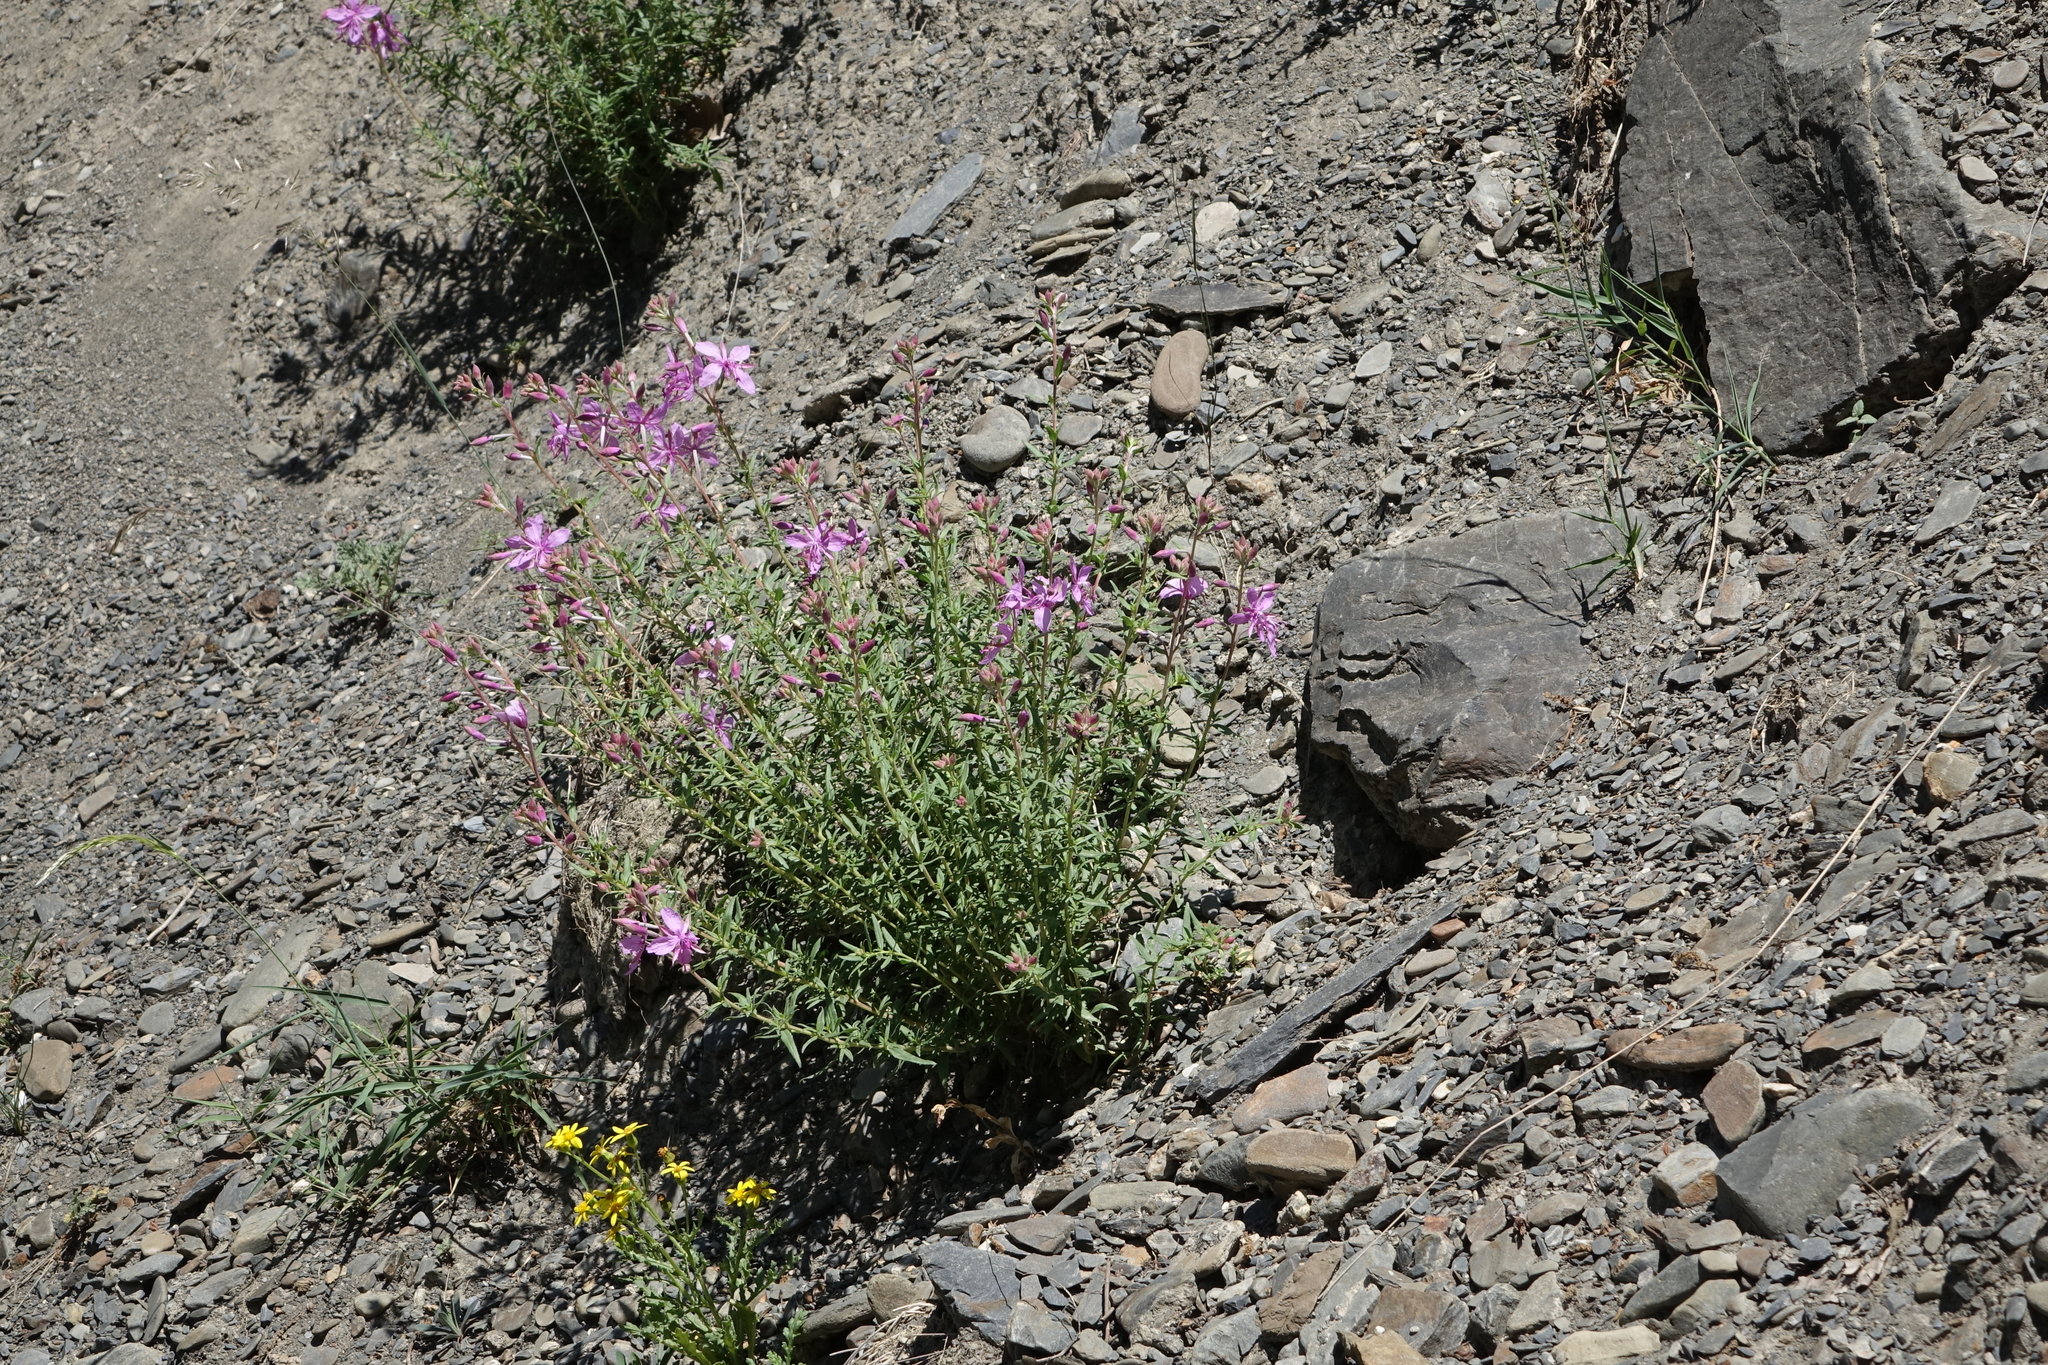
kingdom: Plantae
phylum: Tracheophyta
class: Magnoliopsida
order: Myrtales
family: Onagraceae
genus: Chamaenerion
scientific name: Chamaenerion colchicum
